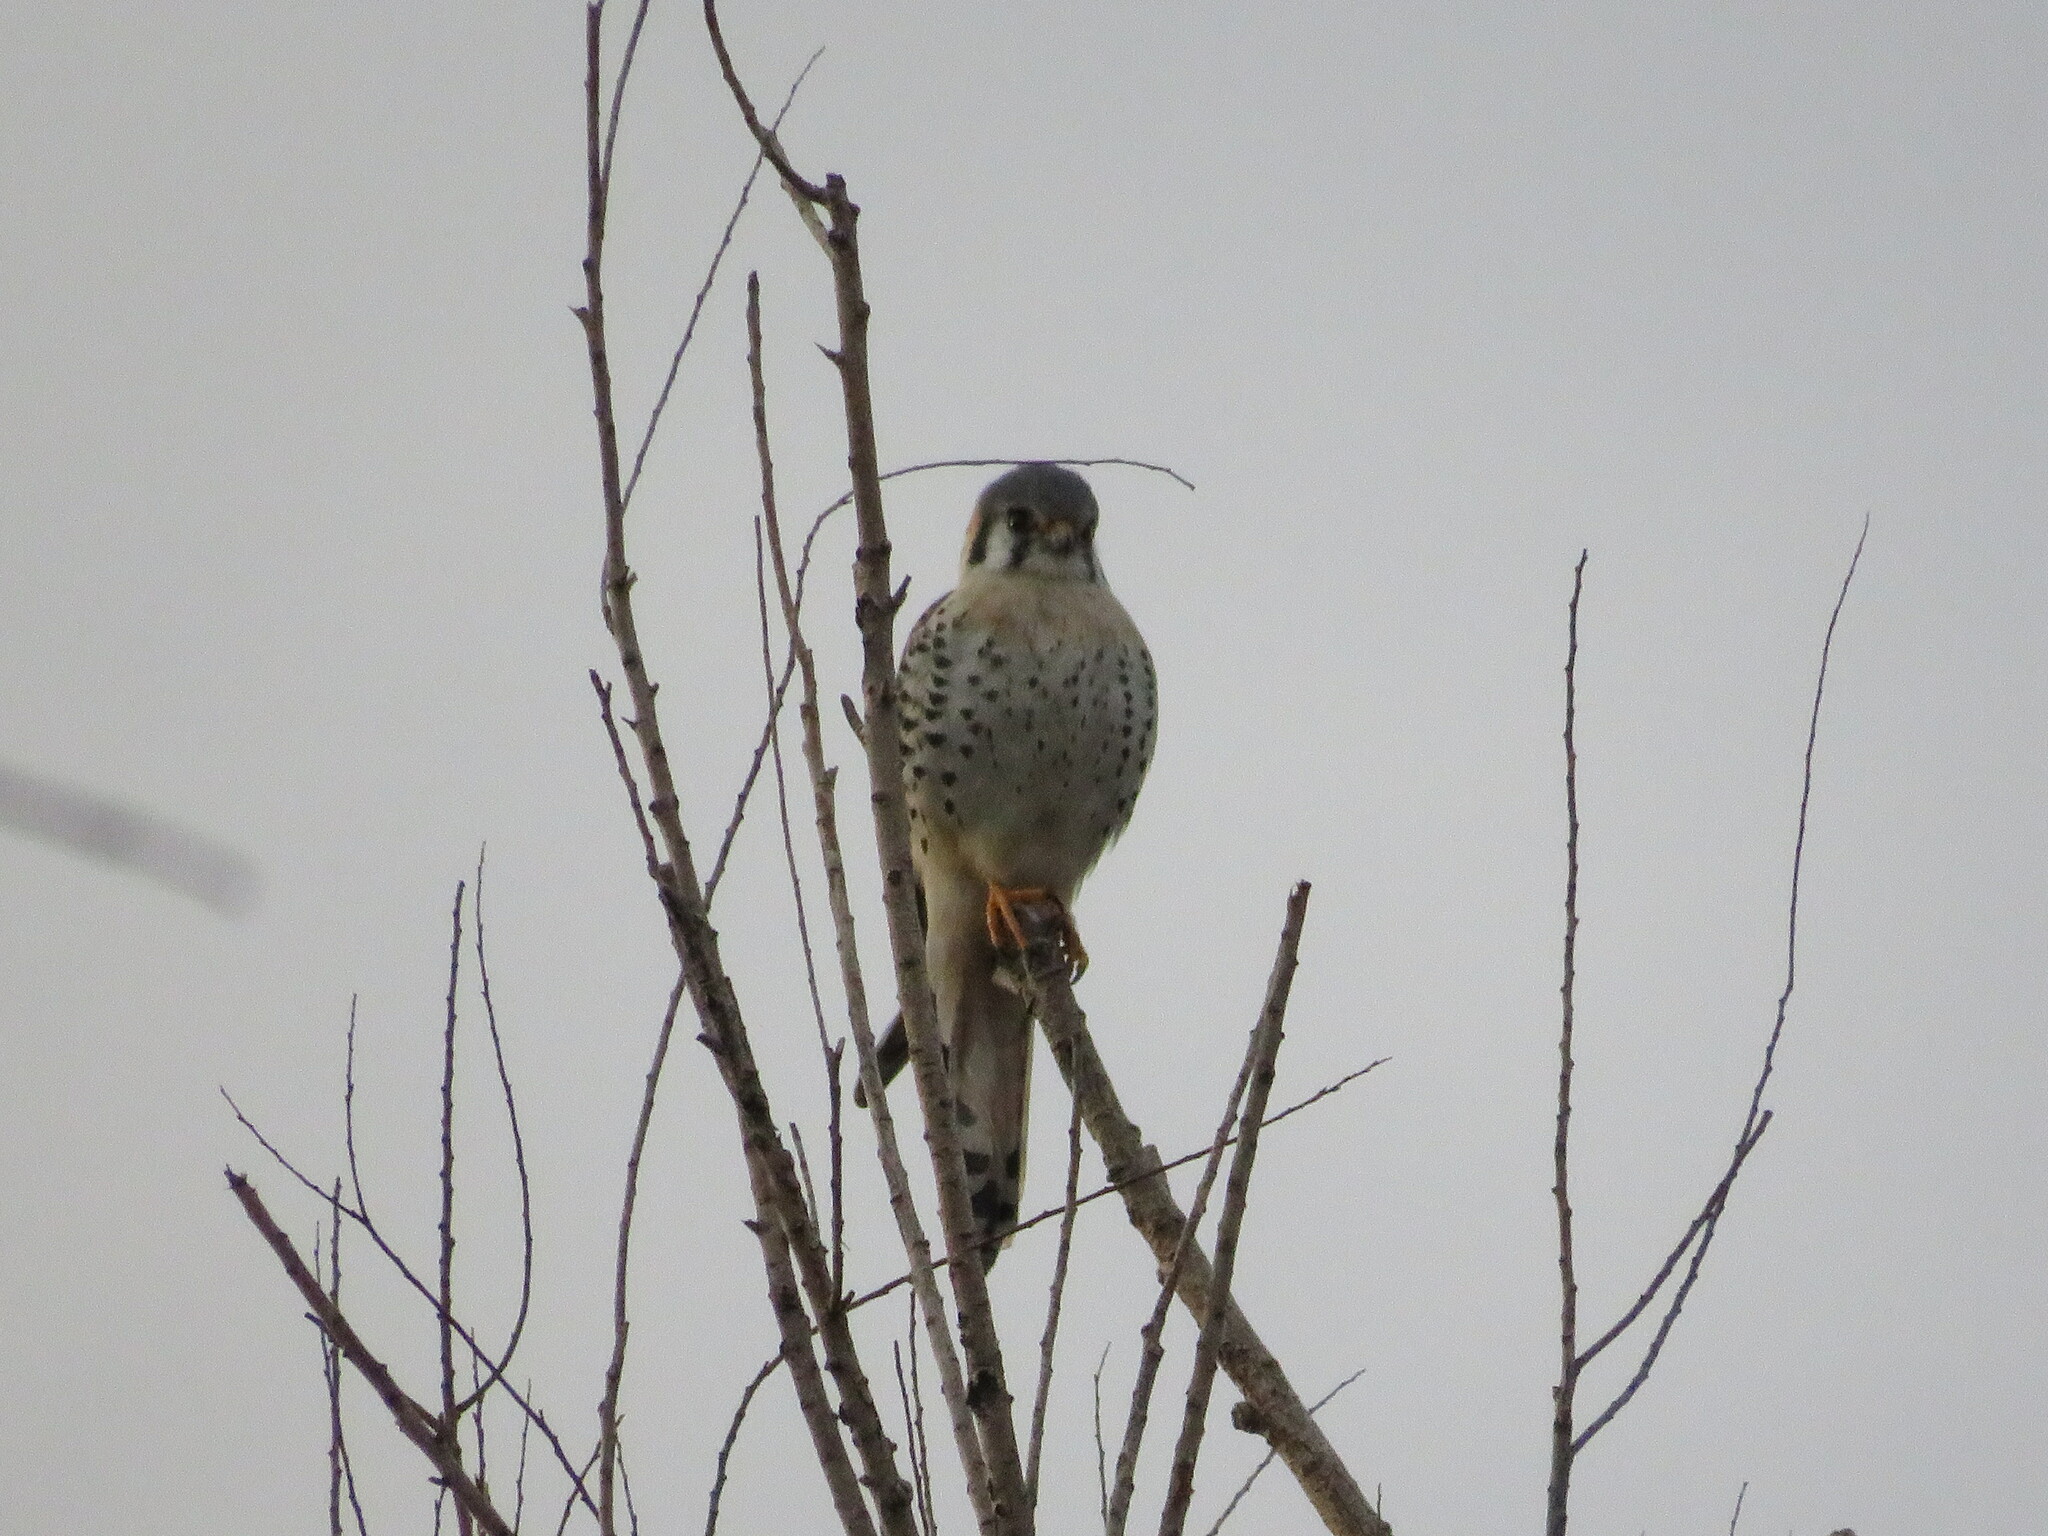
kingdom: Animalia
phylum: Chordata
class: Aves
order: Falconiformes
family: Falconidae
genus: Falco
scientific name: Falco sparverius
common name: American kestrel
